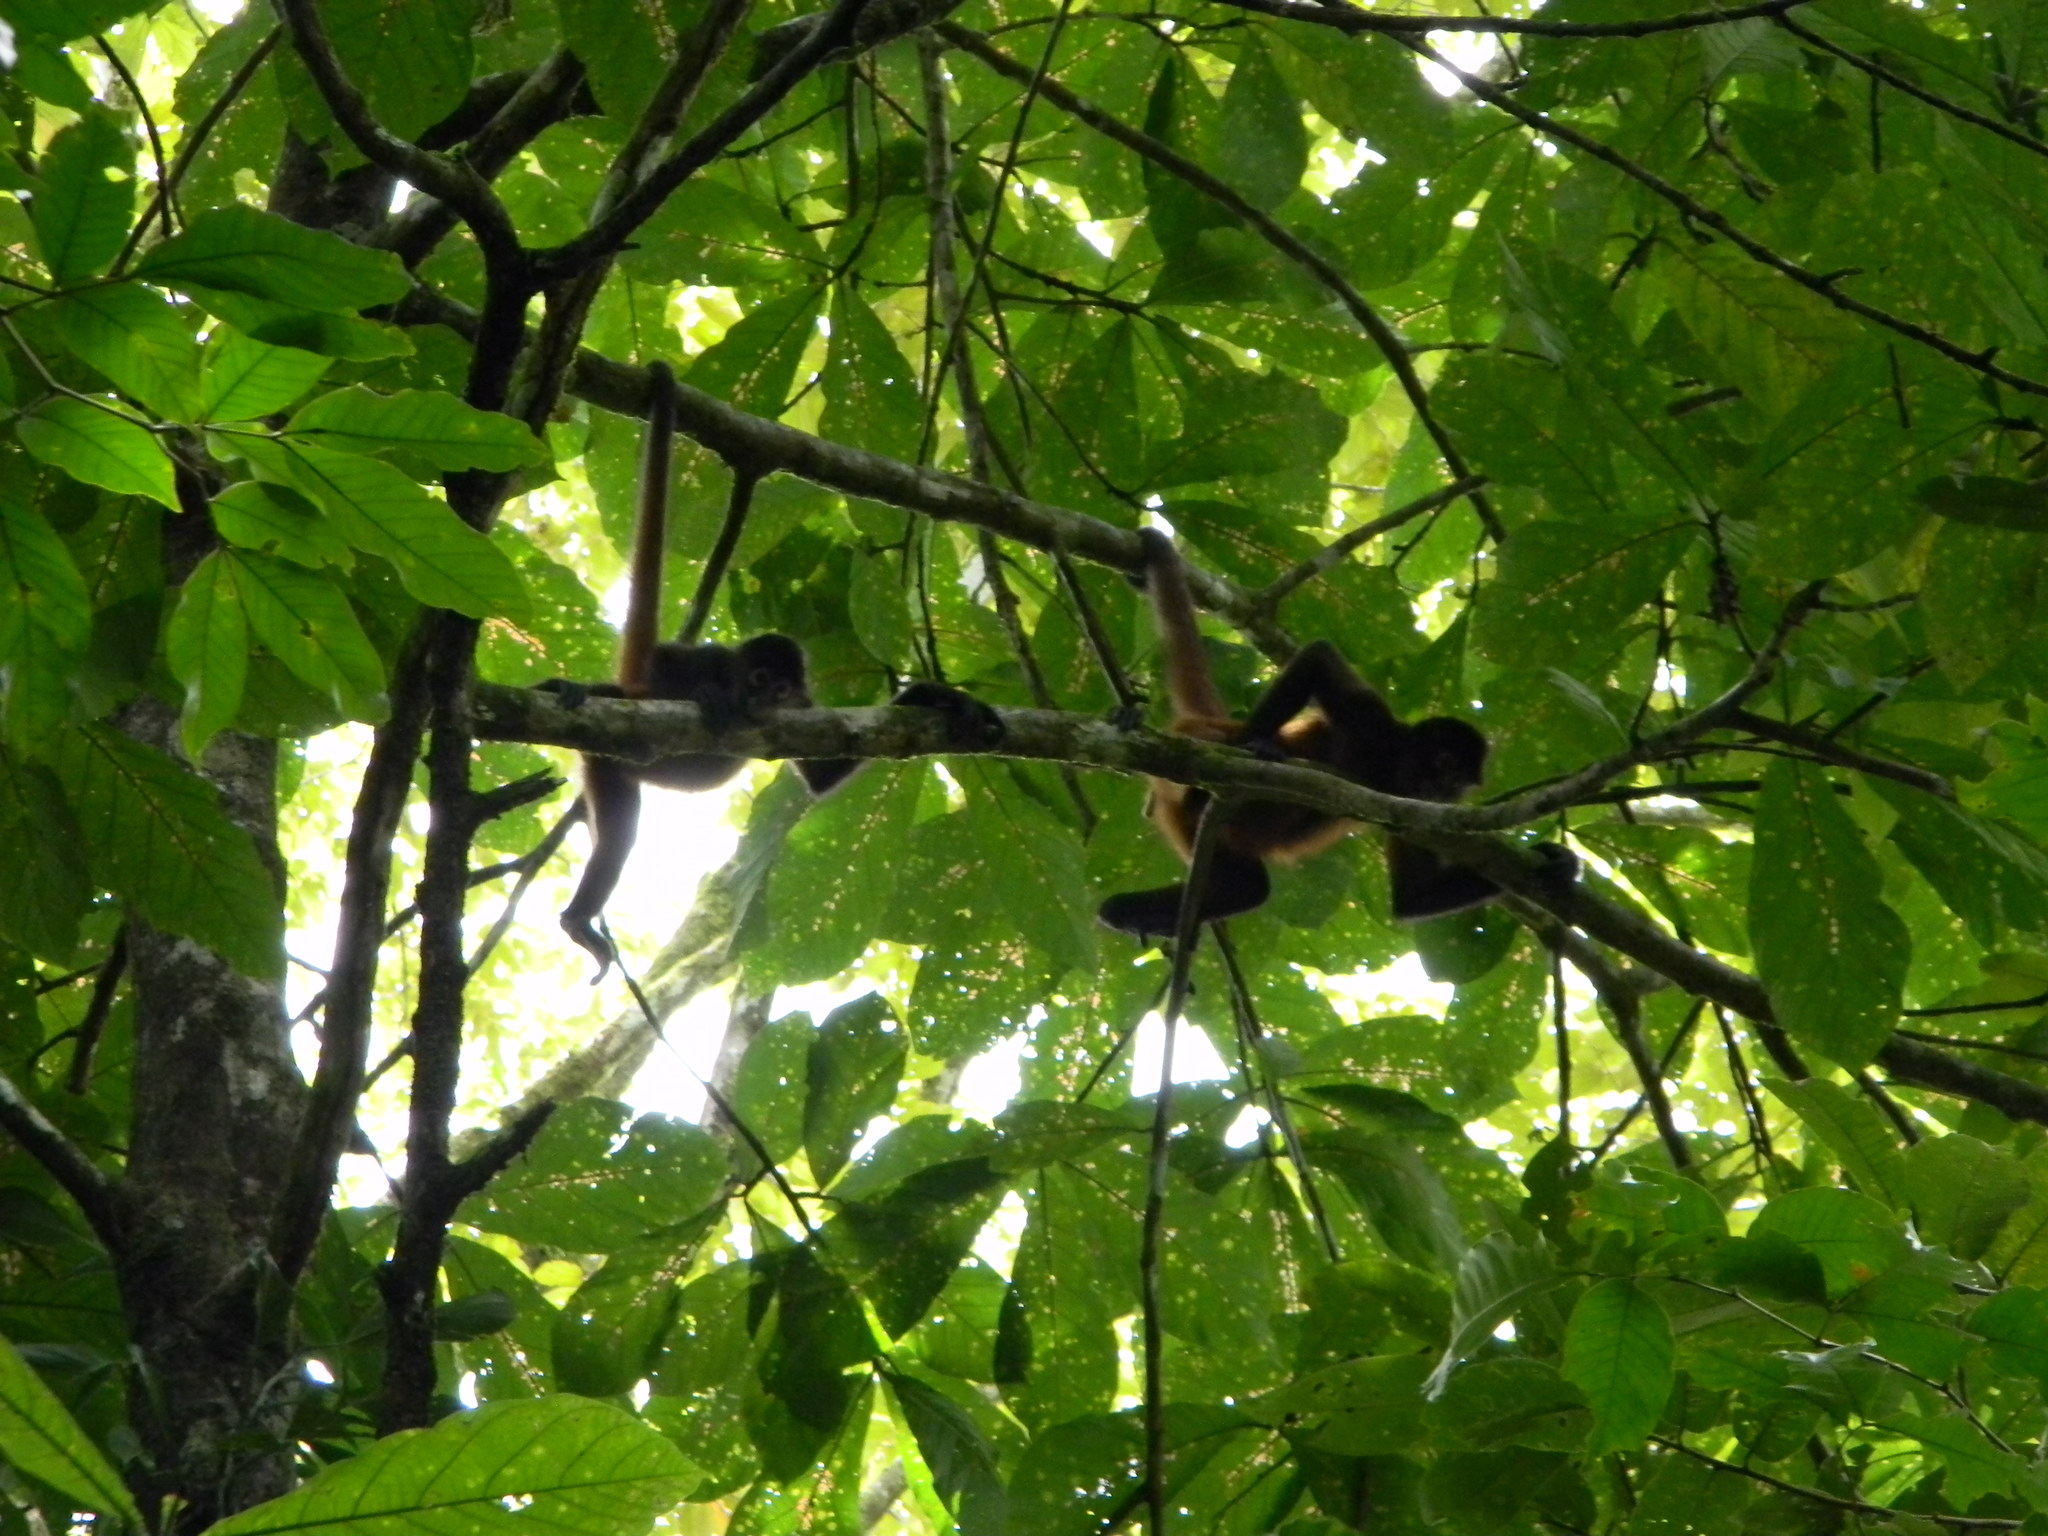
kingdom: Animalia
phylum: Chordata
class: Mammalia
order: Primates
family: Atelidae
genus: Ateles
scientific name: Ateles geoffroyi
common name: Black-handed spider monkey
